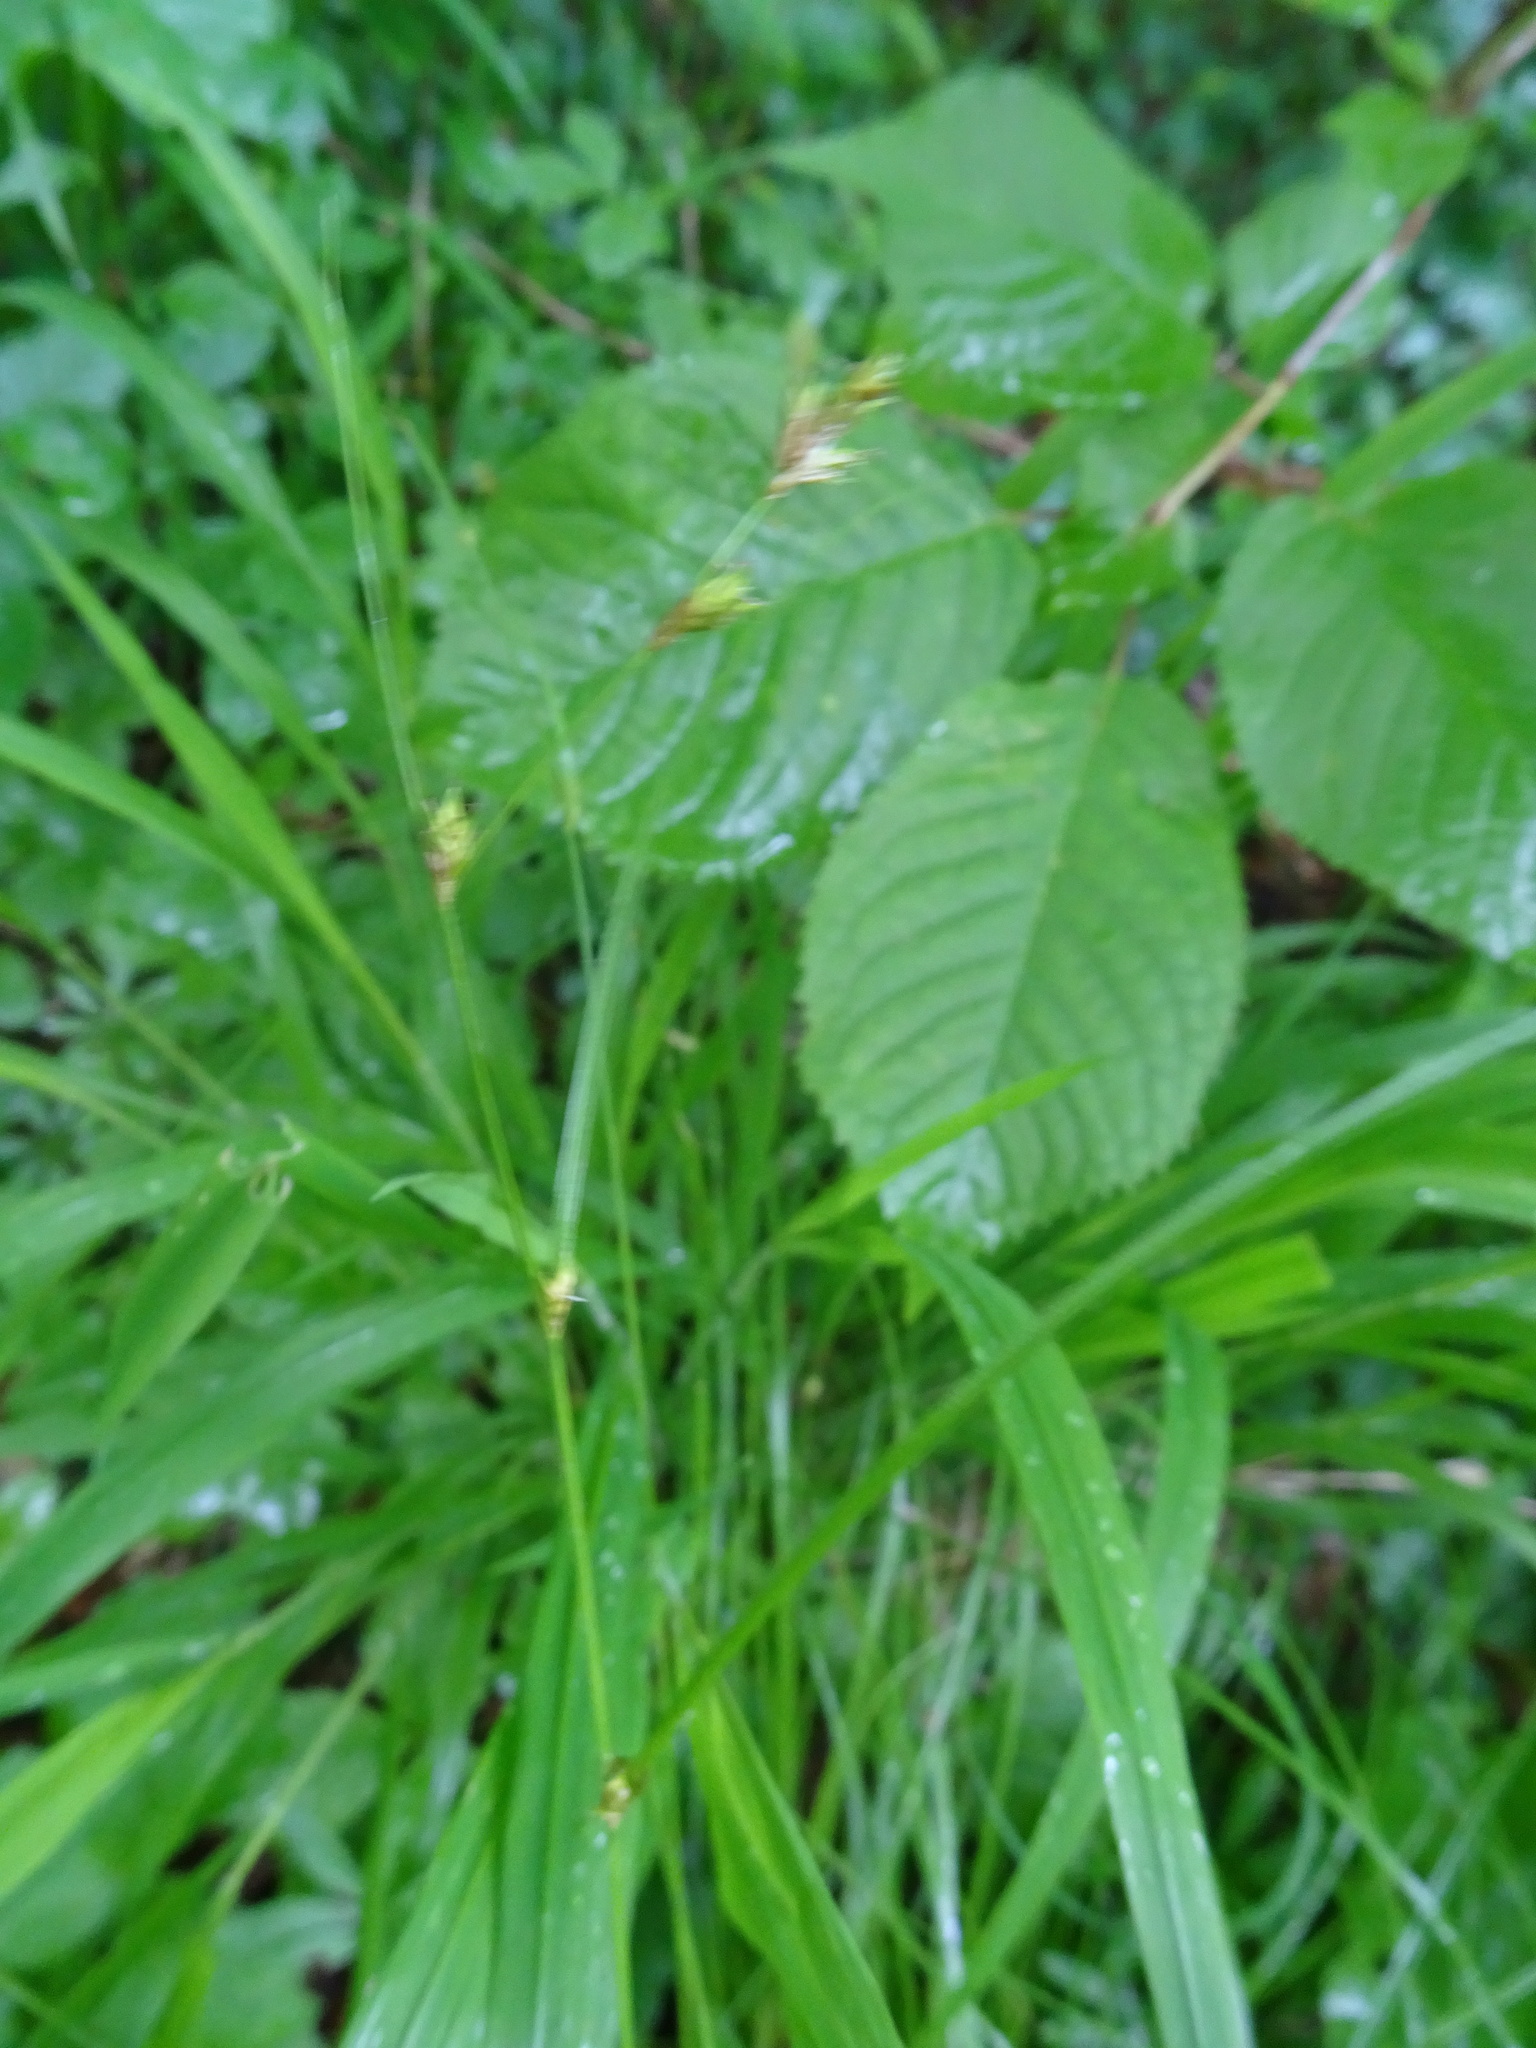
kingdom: Plantae
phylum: Tracheophyta
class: Liliopsida
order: Poales
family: Cyperaceae
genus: Carex
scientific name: Carex remota
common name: Remote sedge
